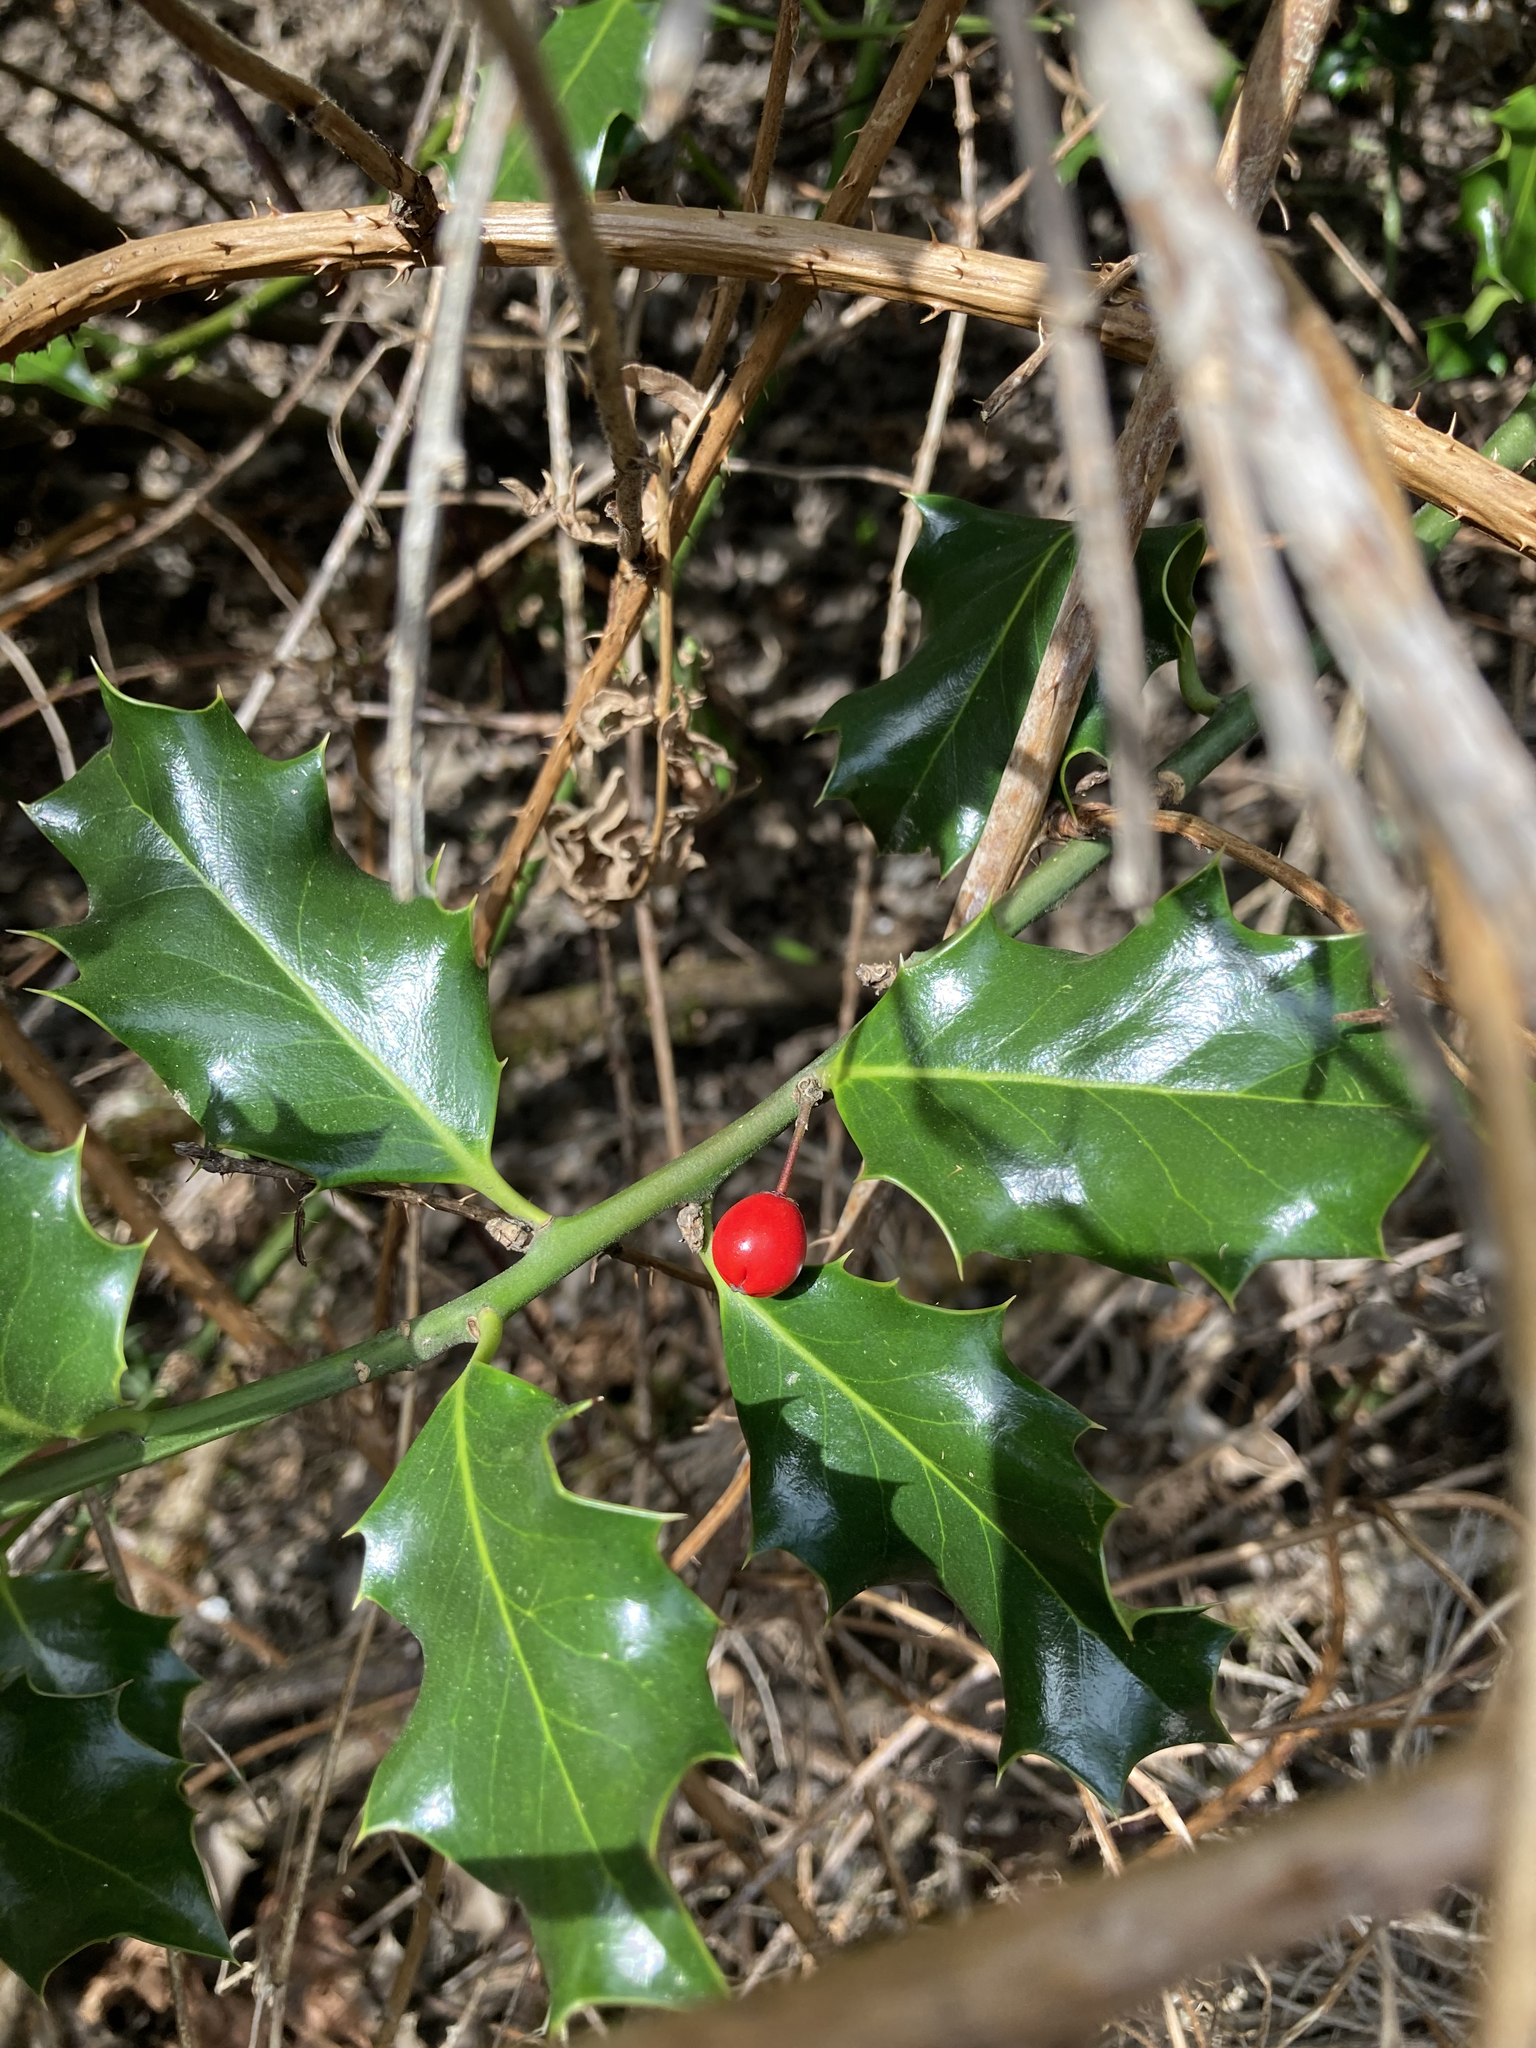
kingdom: Plantae
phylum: Tracheophyta
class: Magnoliopsida
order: Aquifoliales
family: Aquifoliaceae
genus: Ilex
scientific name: Ilex aquifolium
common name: English holly
